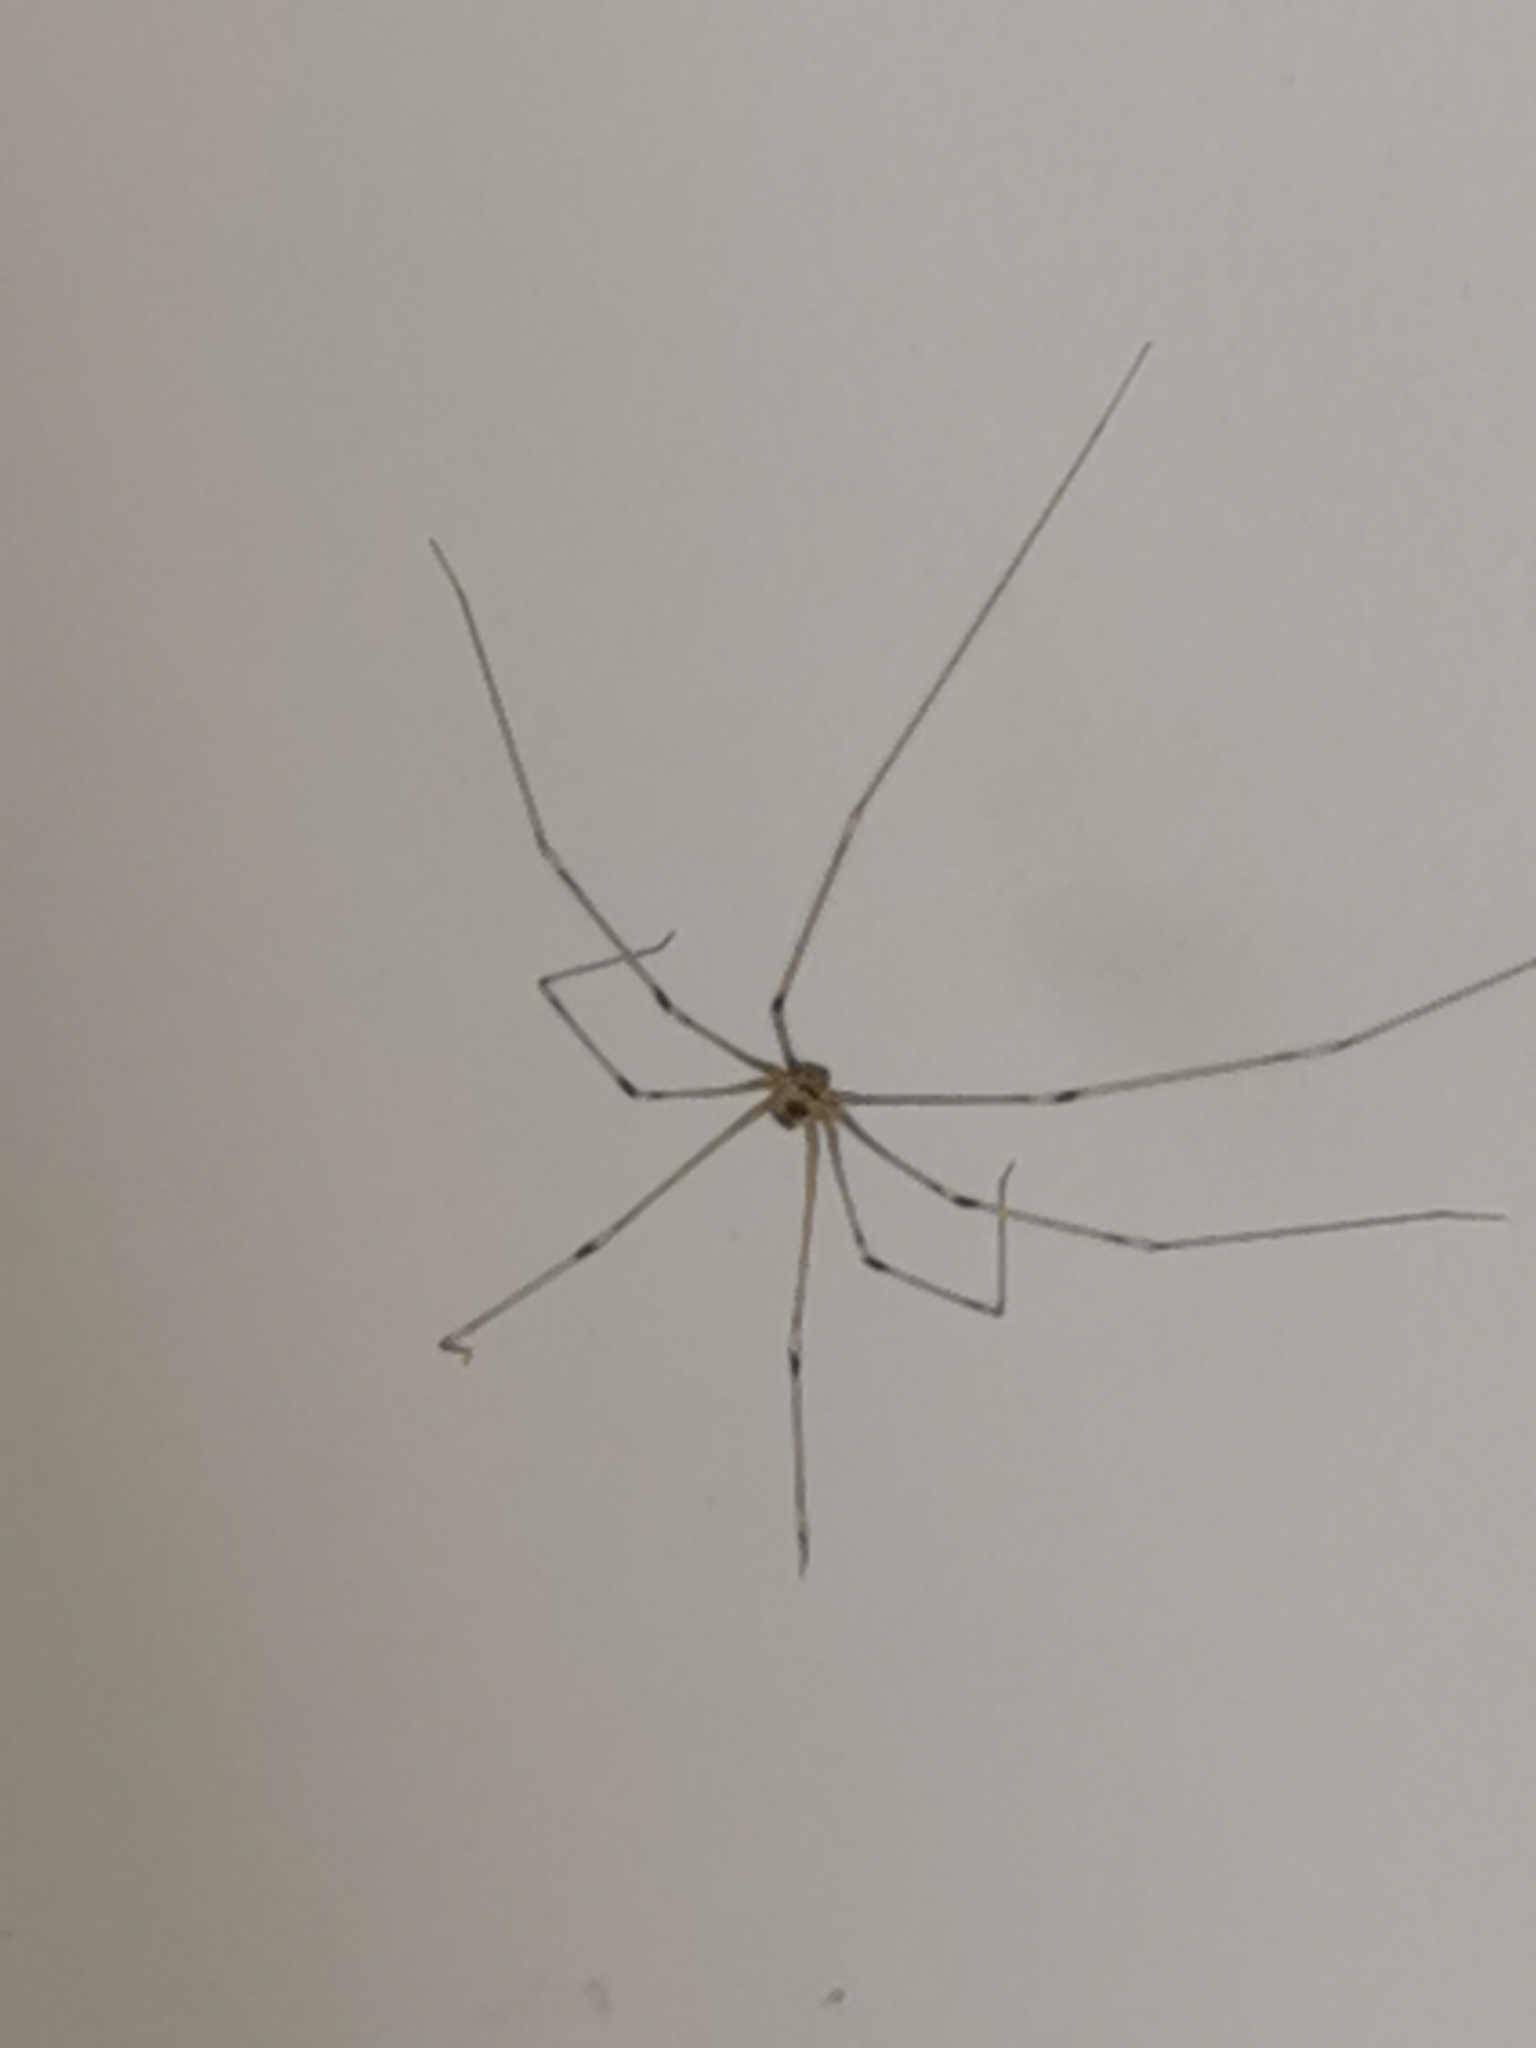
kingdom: Animalia
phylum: Arthropoda
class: Arachnida
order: Araneae
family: Pholcidae
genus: Pholcus
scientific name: Pholcus phalangioides
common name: Longbodied cellar spider
